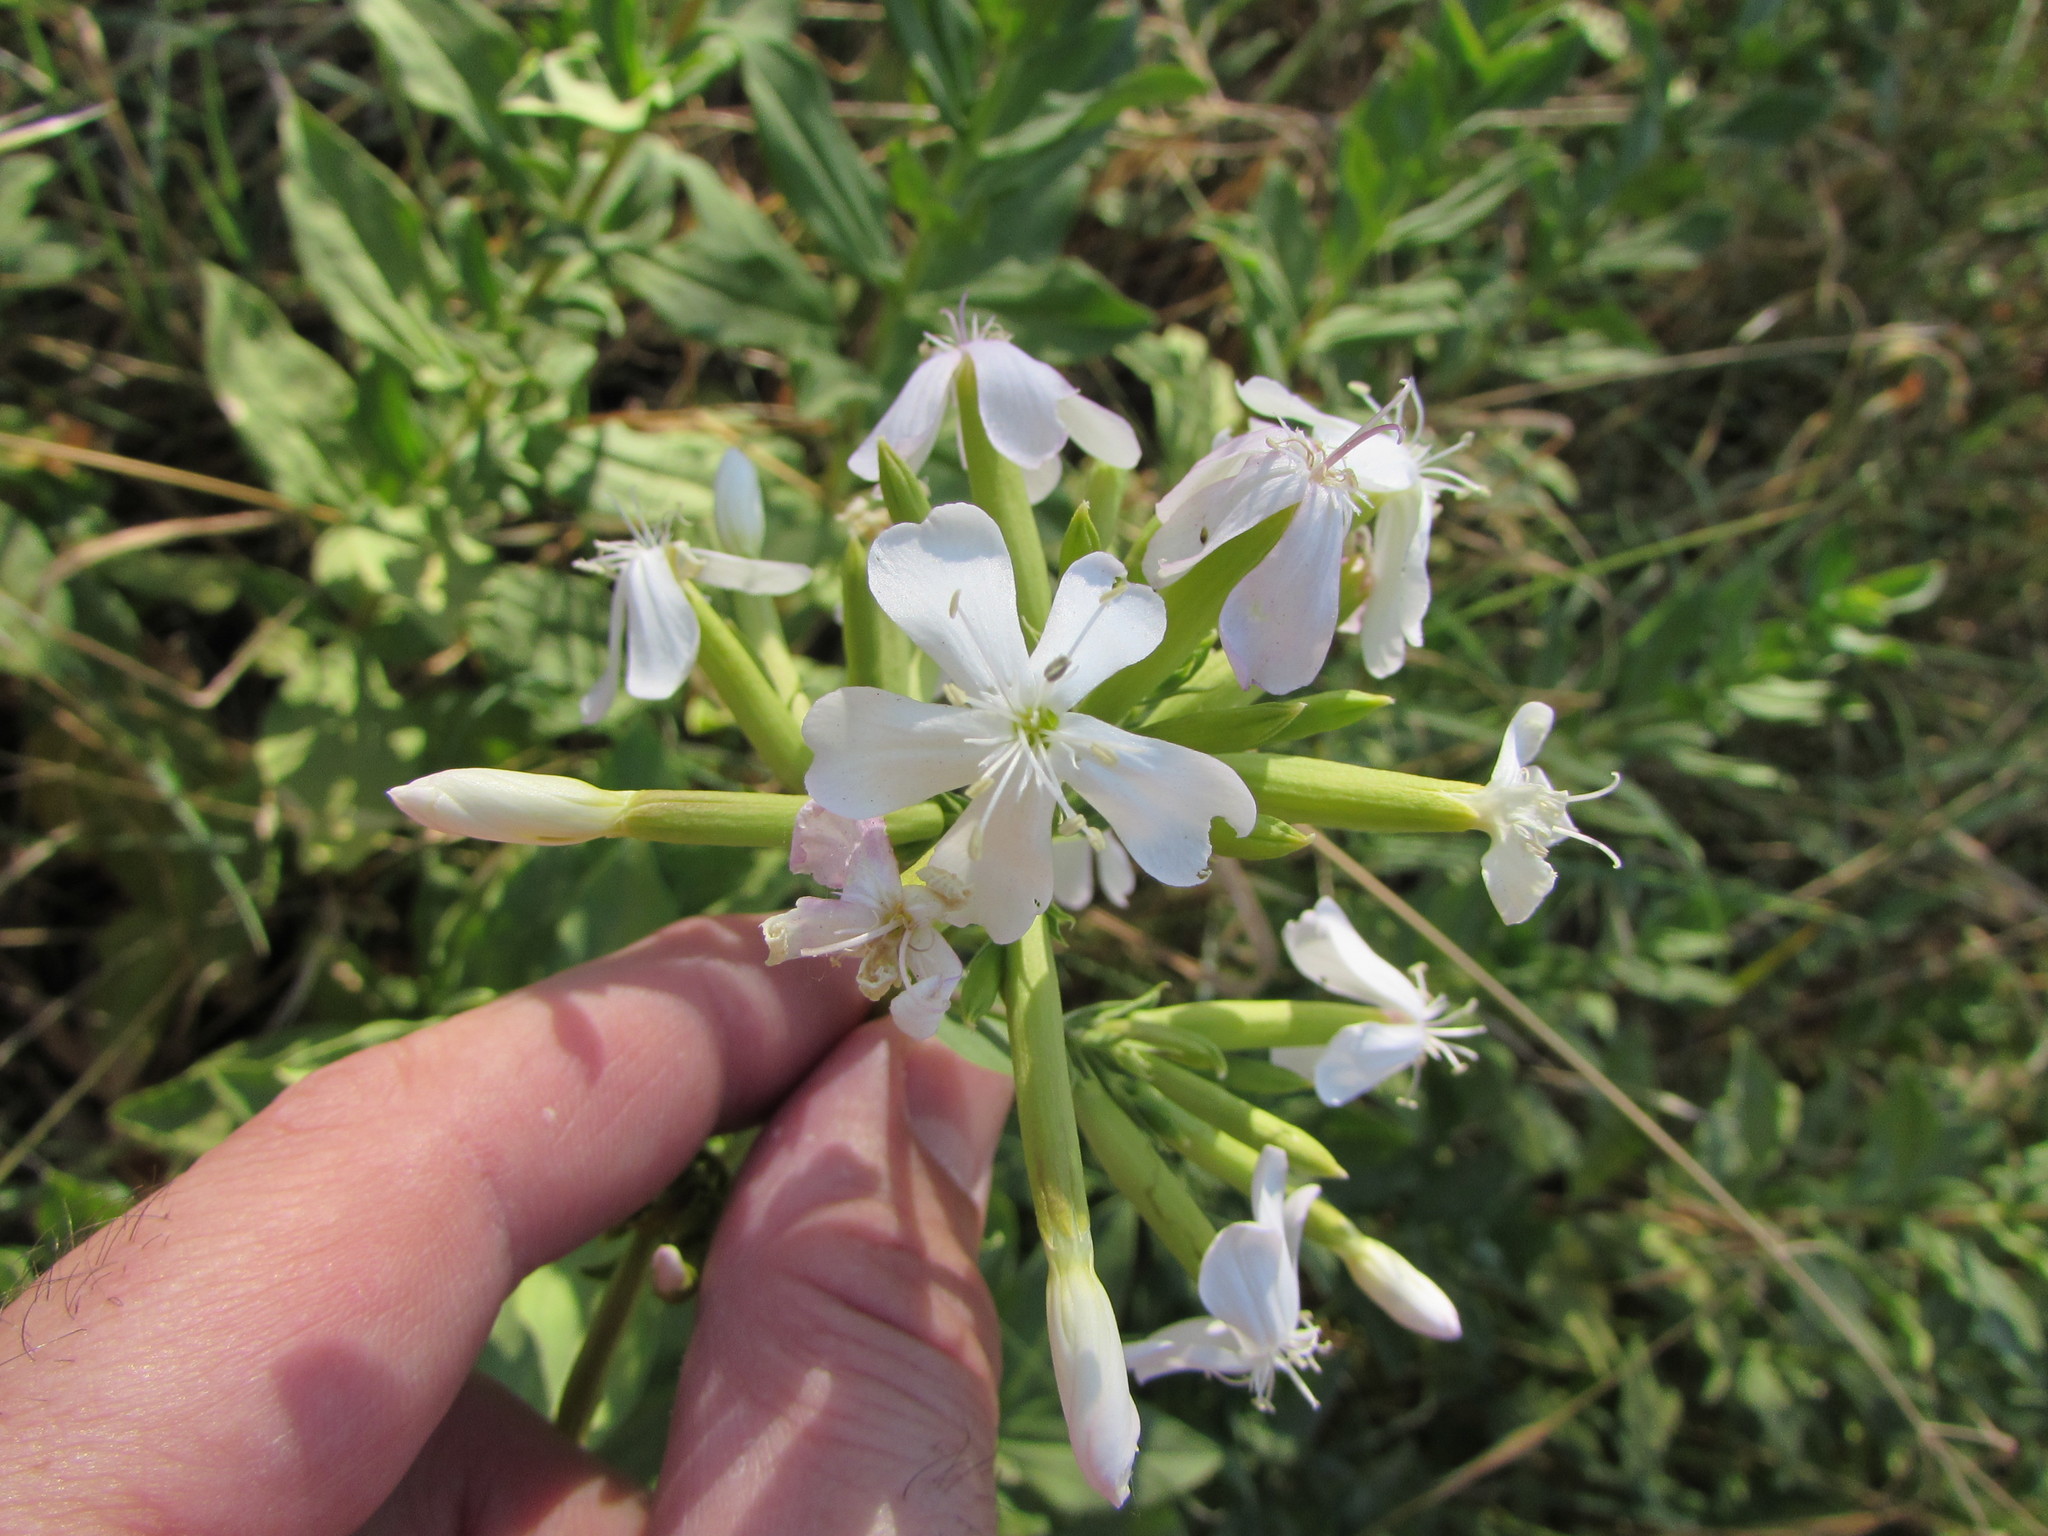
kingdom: Plantae
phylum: Tracheophyta
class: Magnoliopsida
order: Caryophyllales
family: Caryophyllaceae
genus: Saponaria
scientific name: Saponaria officinalis
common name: Soapwort
